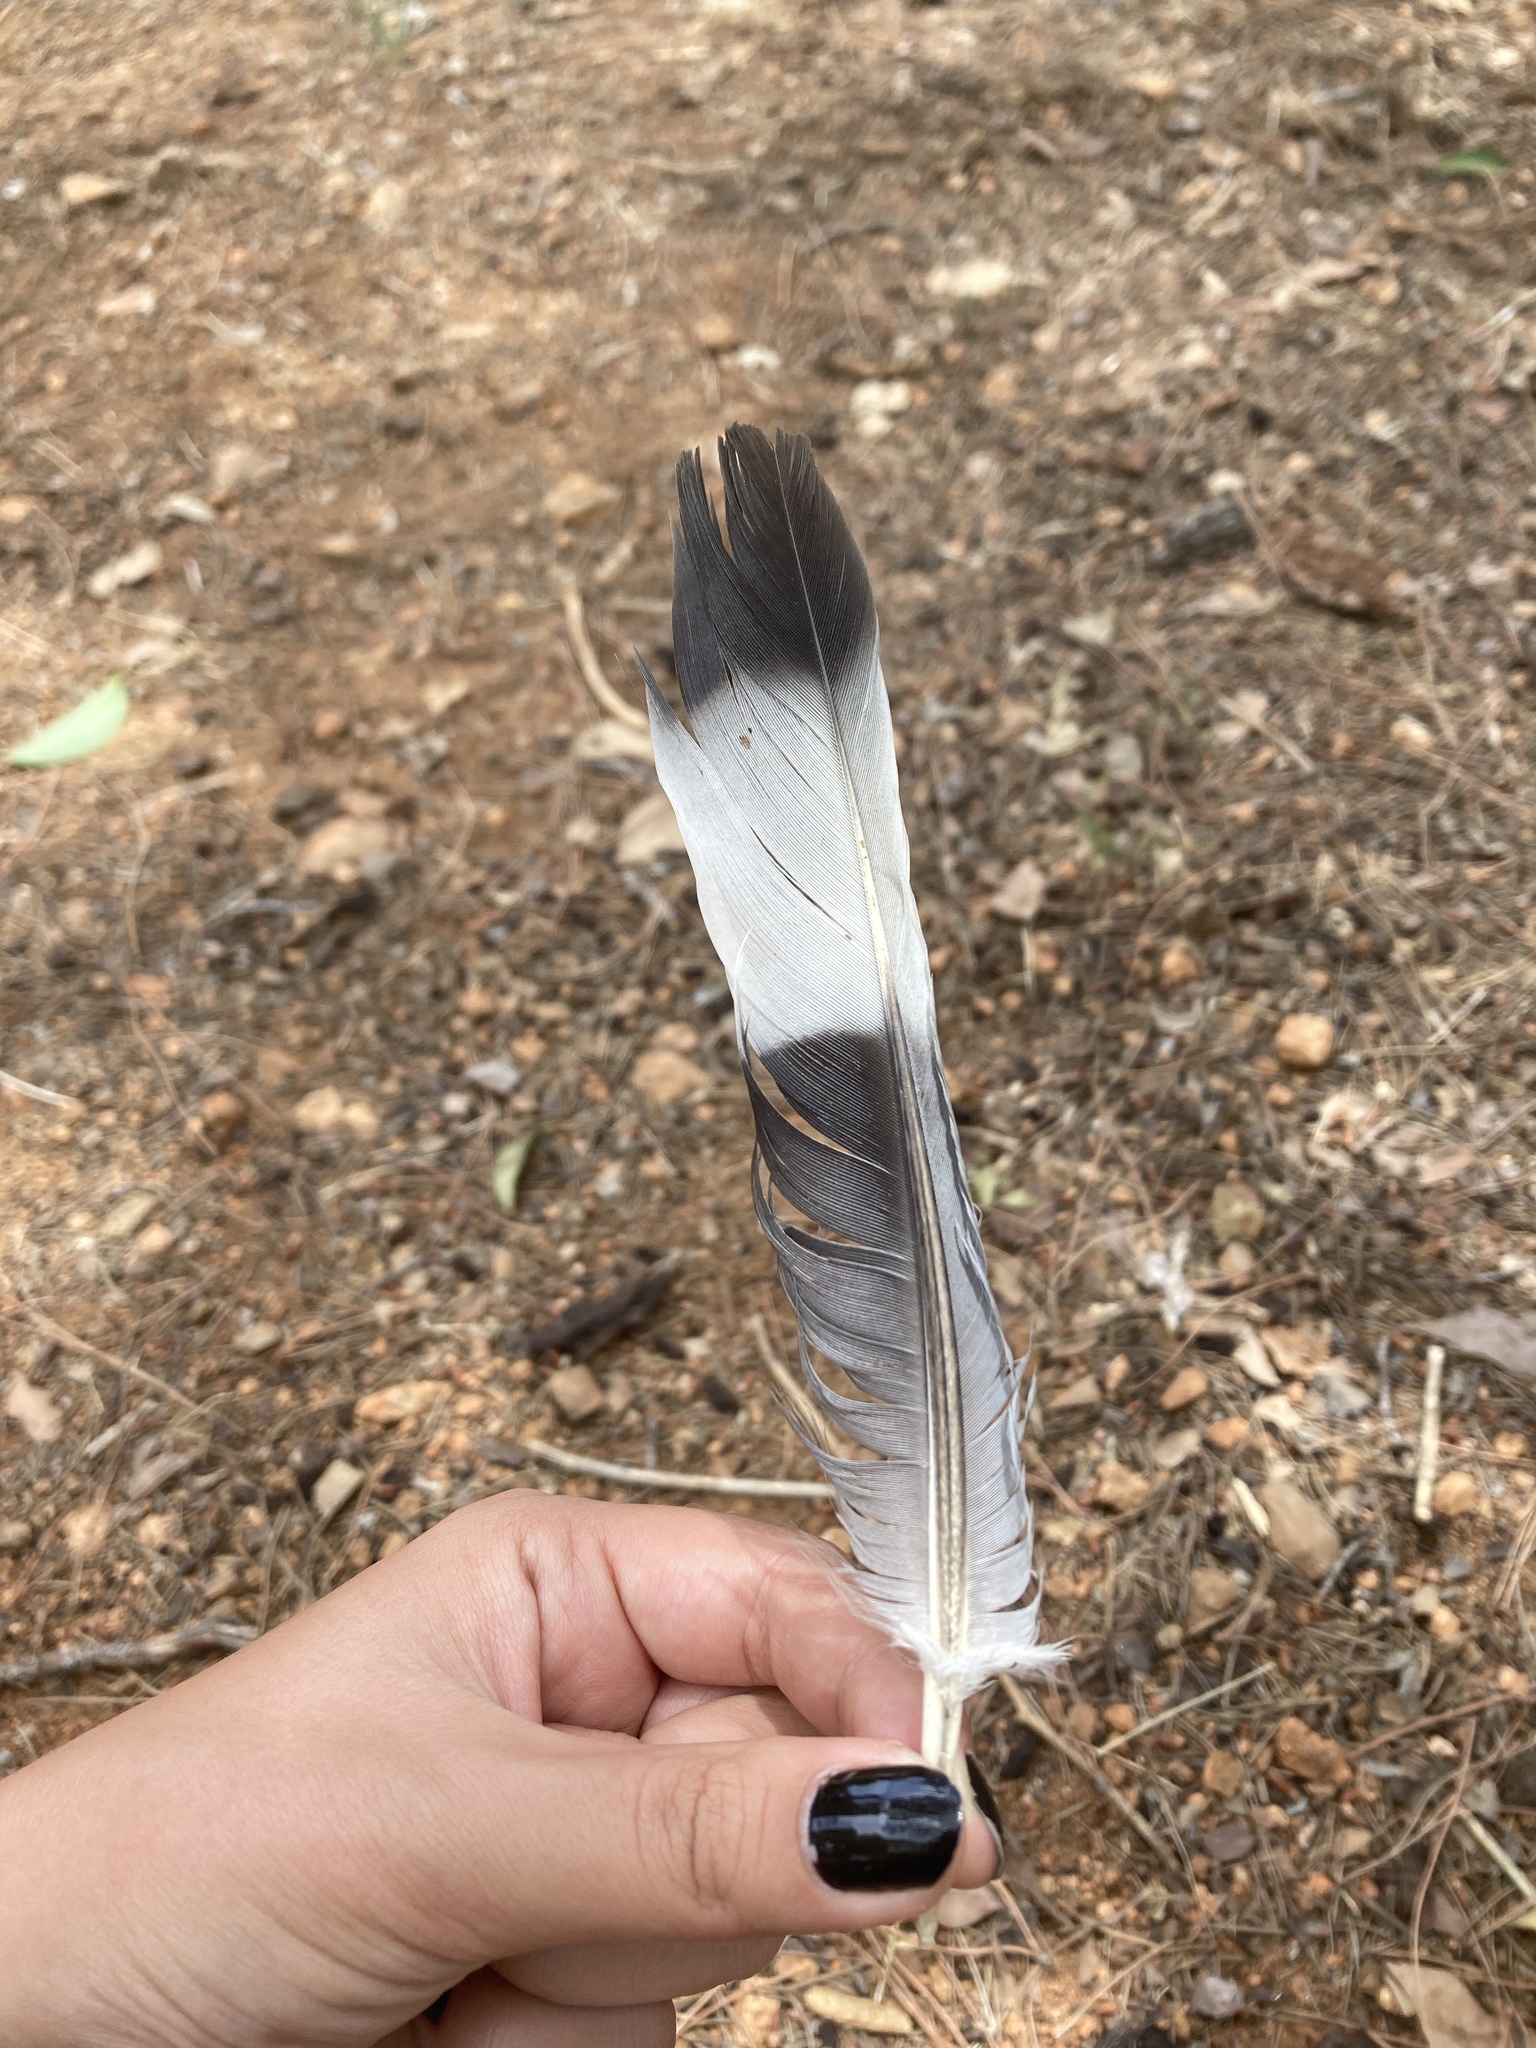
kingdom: Animalia
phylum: Chordata
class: Aves
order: Columbiformes
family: Columbidae
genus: Columba
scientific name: Columba palumbus
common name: Common wood pigeon
